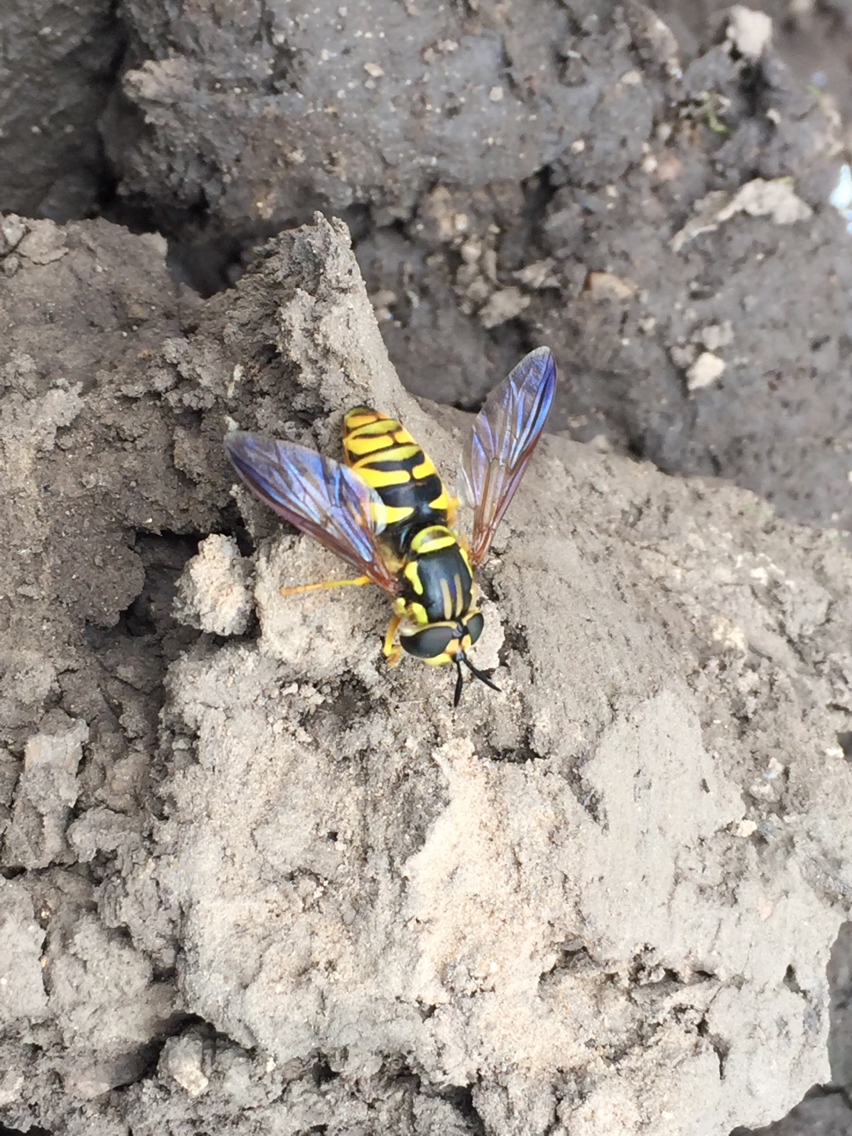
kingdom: Animalia
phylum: Arthropoda
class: Insecta
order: Diptera
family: Syrphidae
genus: Chrysotoxum
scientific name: Chrysotoxum
